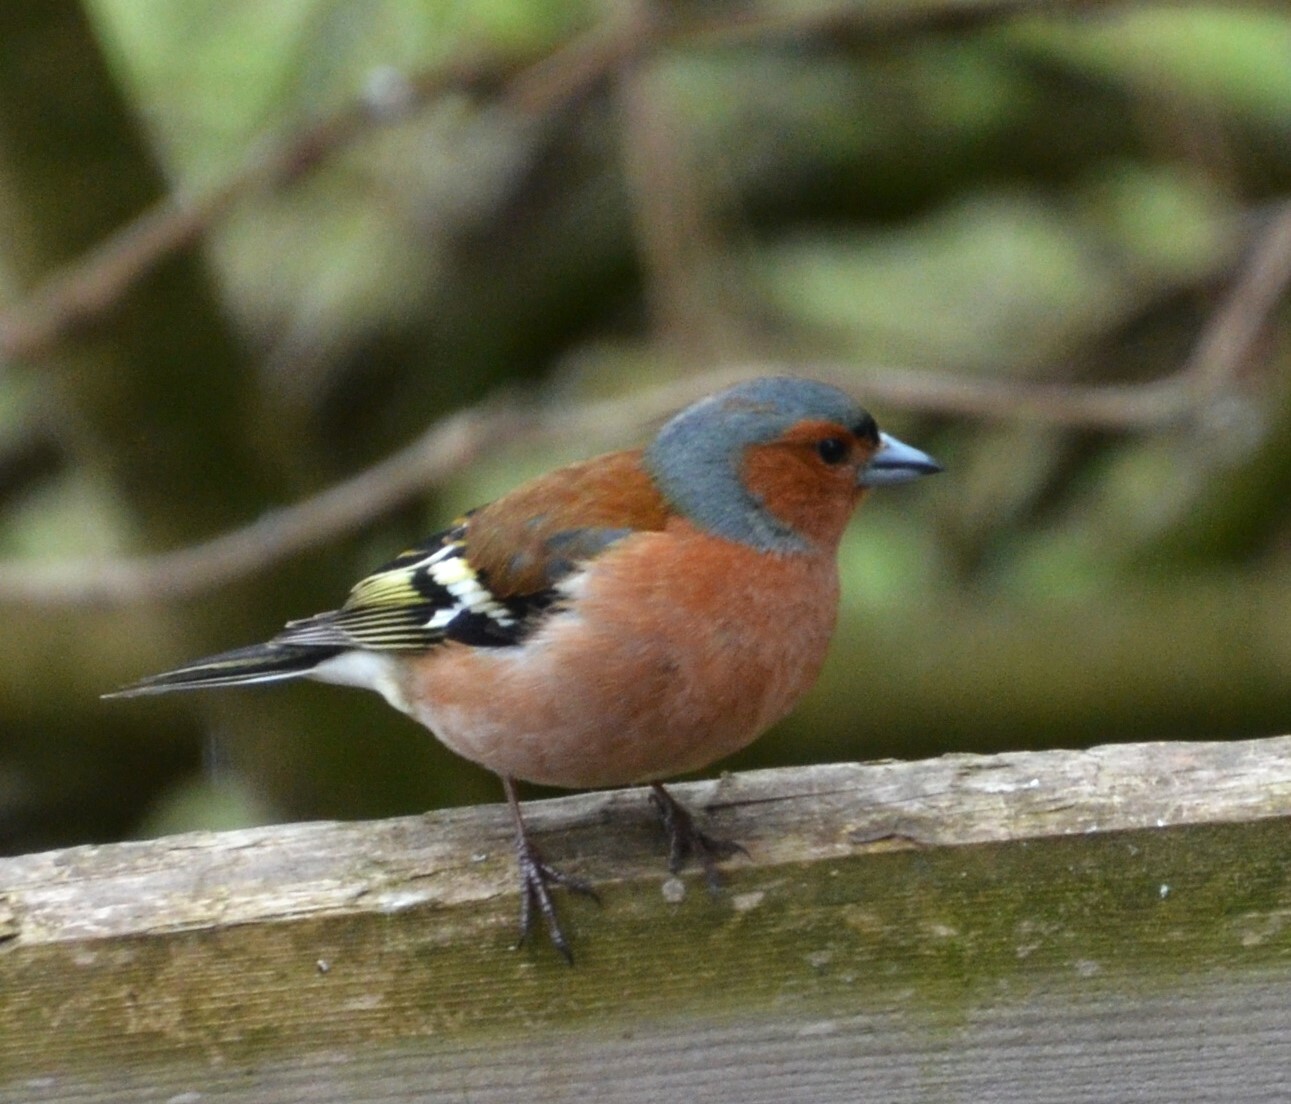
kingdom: Animalia
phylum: Chordata
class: Aves
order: Passeriformes
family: Fringillidae
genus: Fringilla
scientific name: Fringilla coelebs
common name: Common chaffinch
